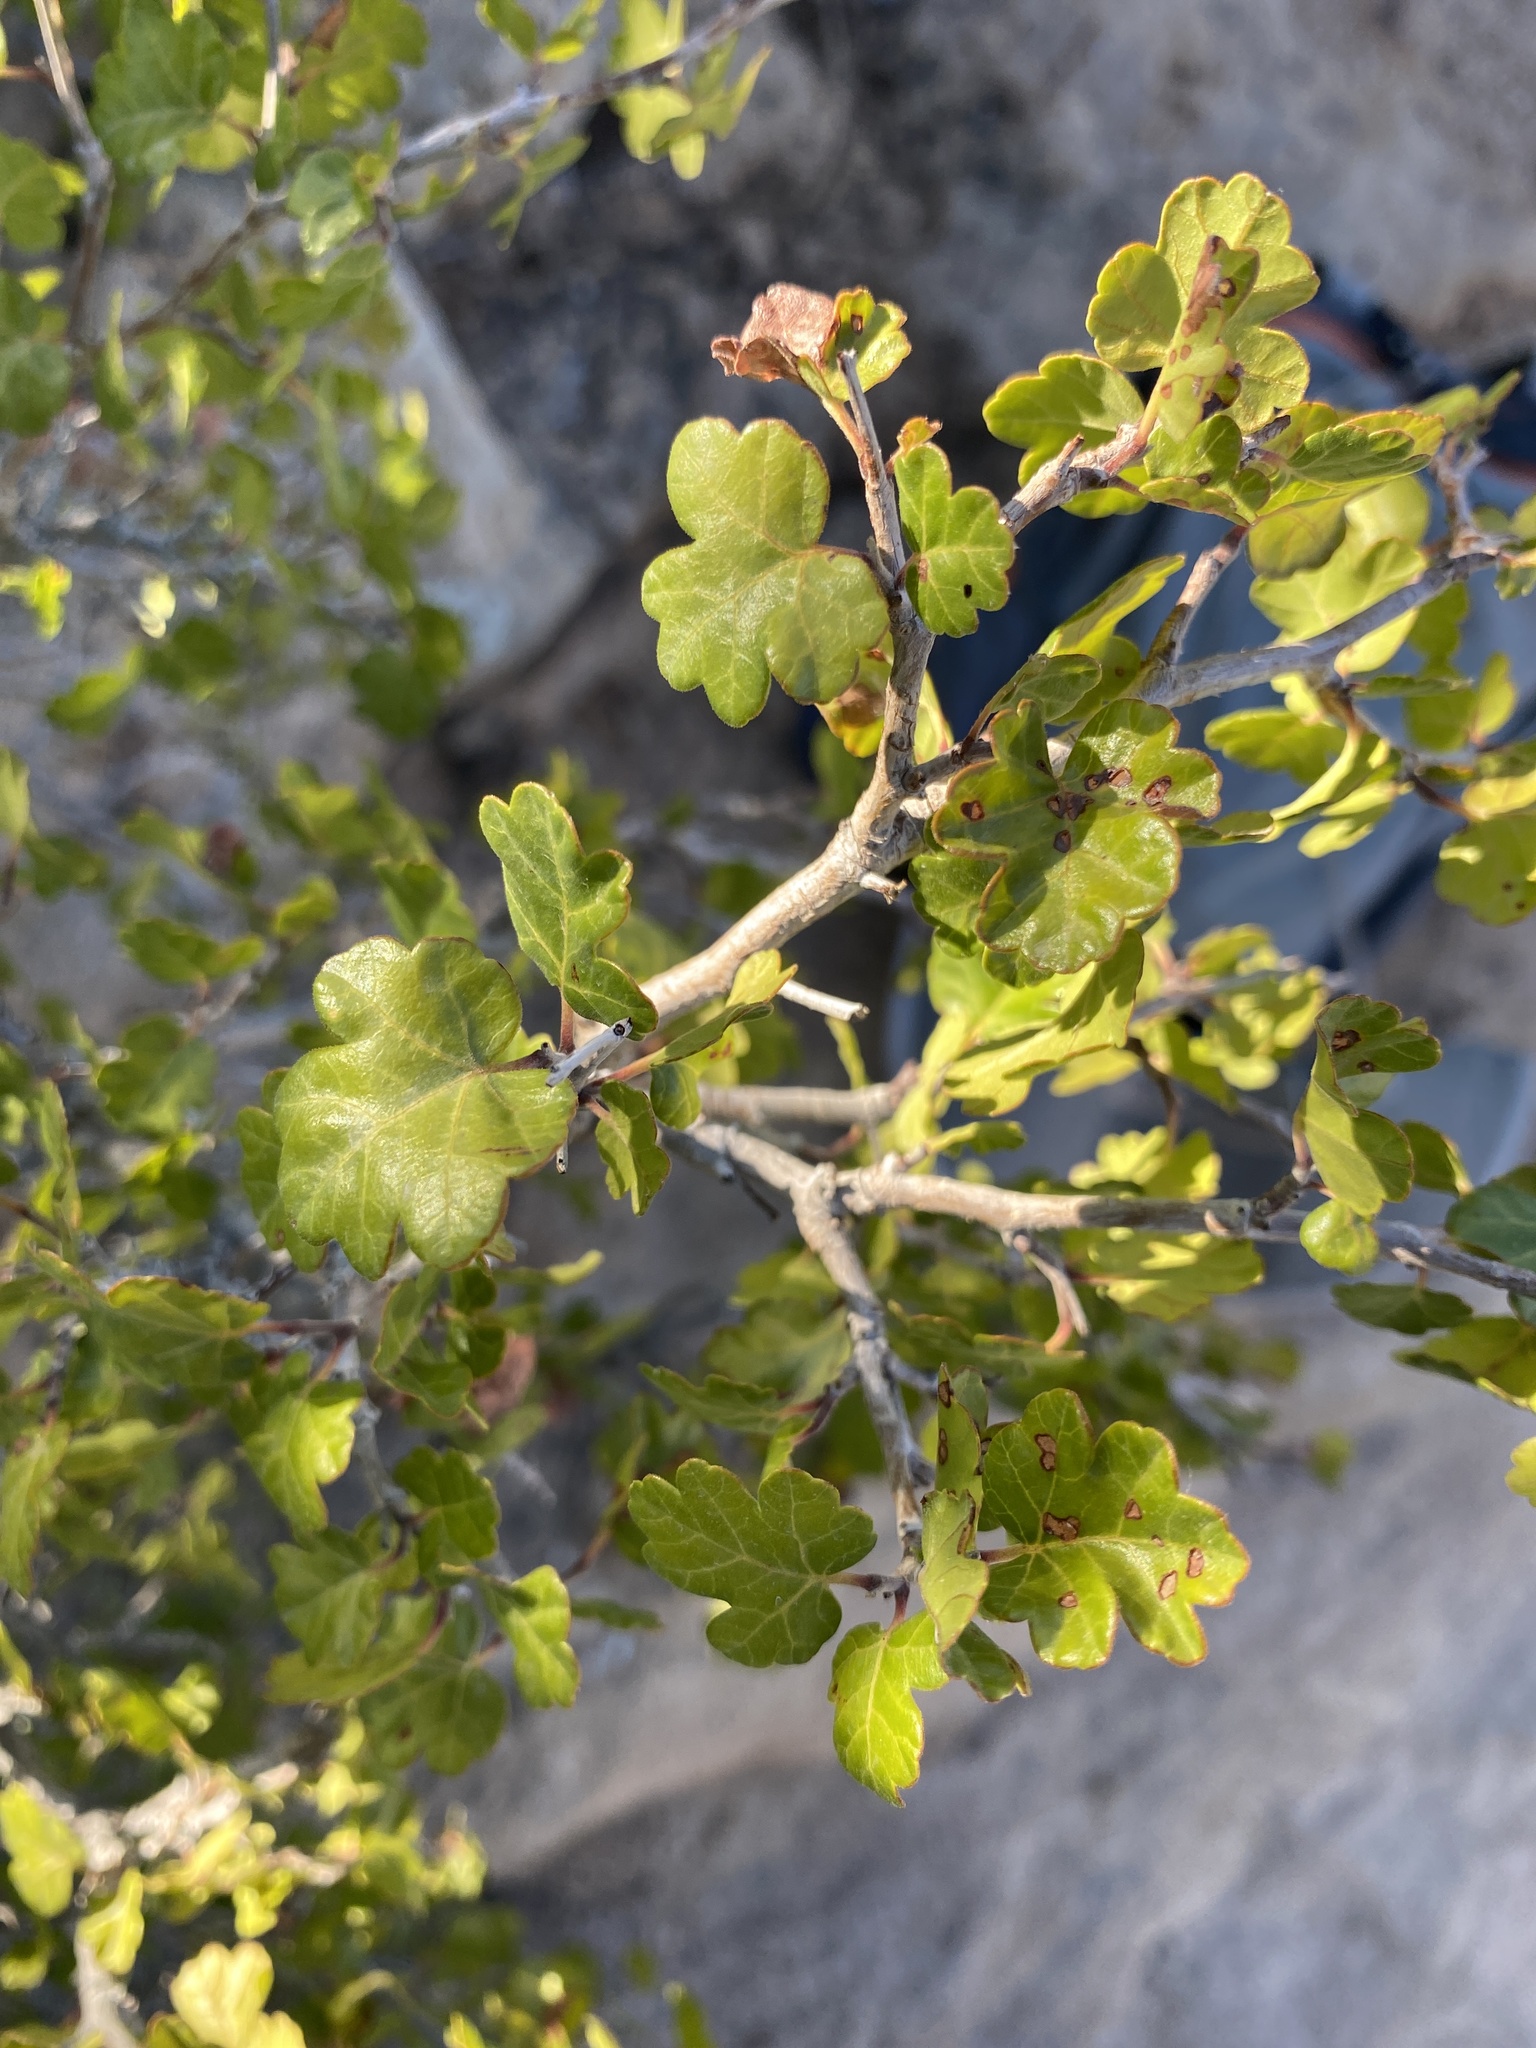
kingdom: Plantae
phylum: Tracheophyta
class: Magnoliopsida
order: Sapindales
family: Anacardiaceae
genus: Rhus
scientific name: Rhus trilobata
